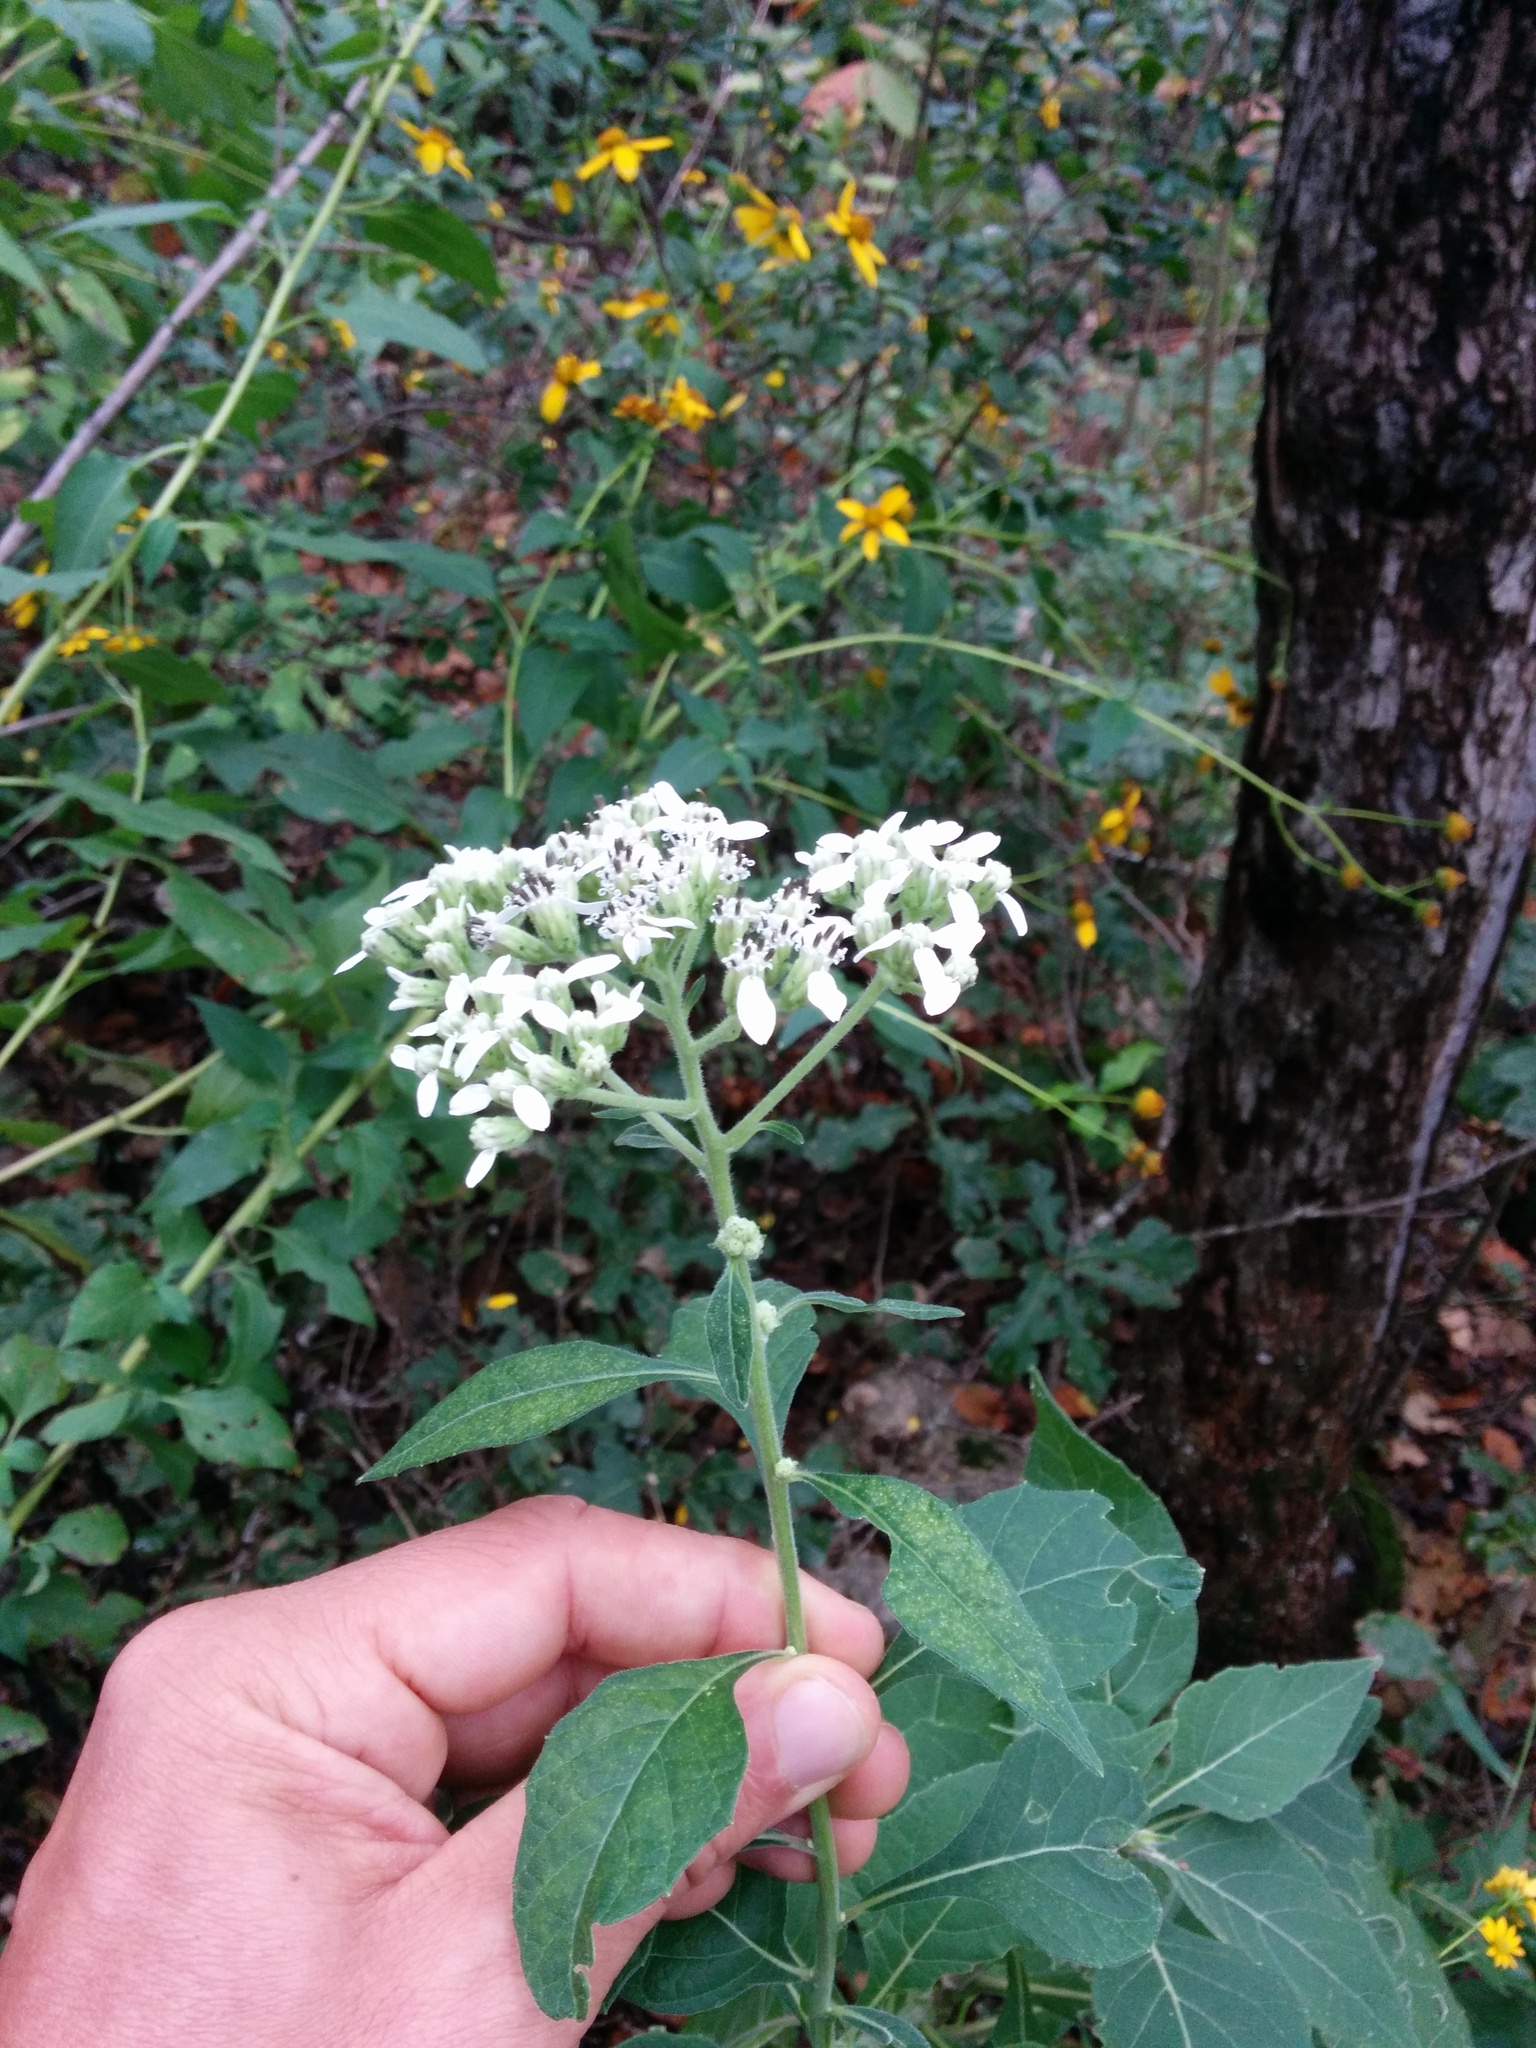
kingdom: Plantae
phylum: Tracheophyta
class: Magnoliopsida
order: Asterales
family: Asteraceae
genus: Verbesina
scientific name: Verbesina virginica
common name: Frostweed
